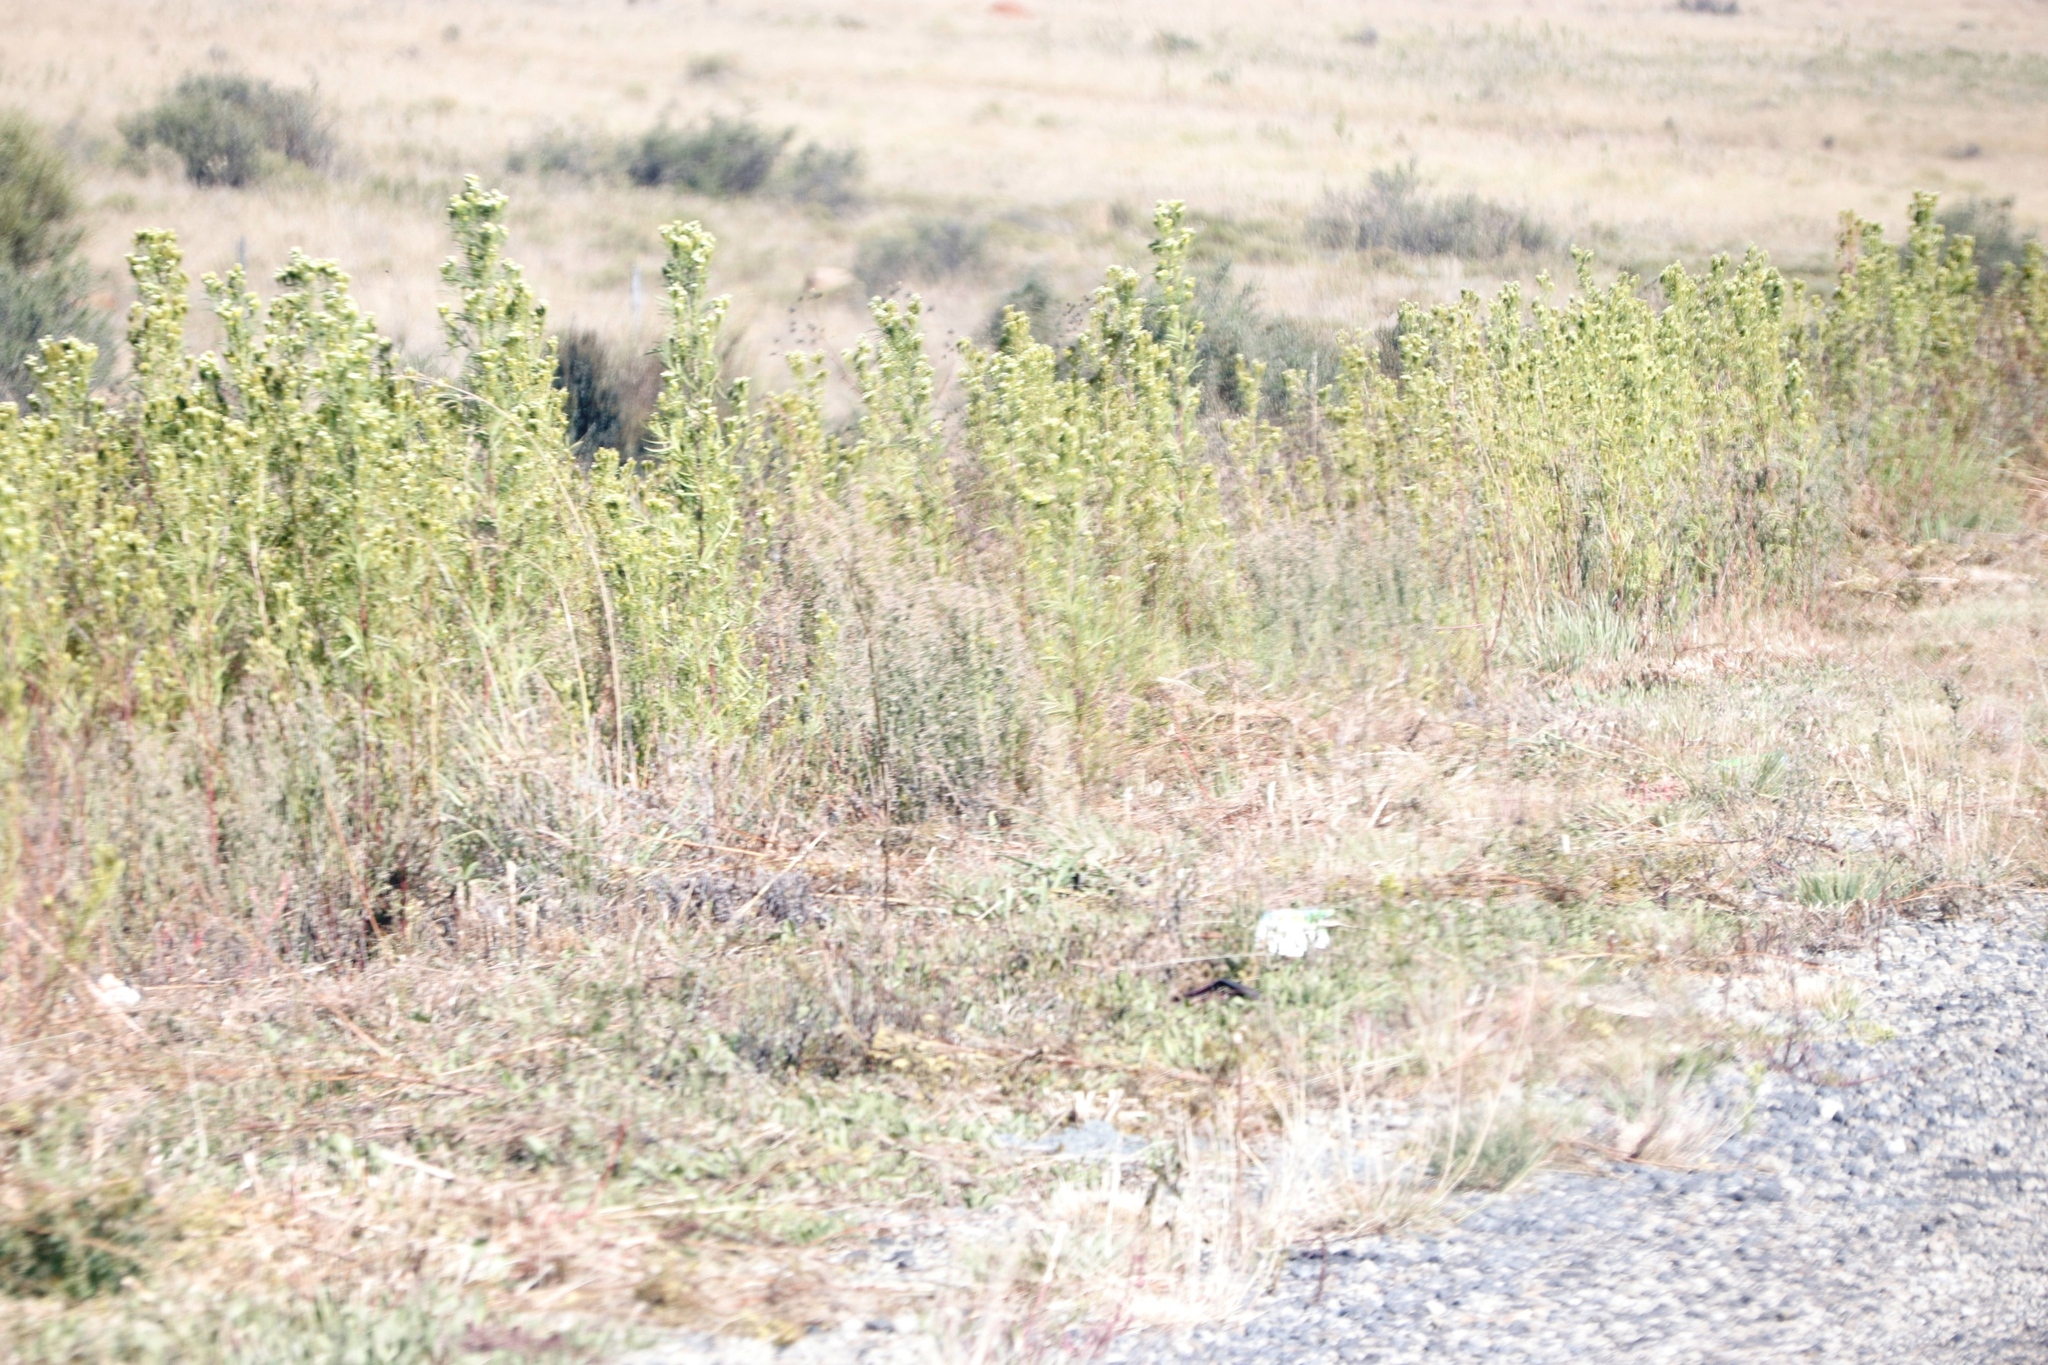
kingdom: Plantae
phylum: Tracheophyta
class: Magnoliopsida
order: Asterales
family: Asteraceae
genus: Tagetes
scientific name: Tagetes minuta
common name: Muster john henry
